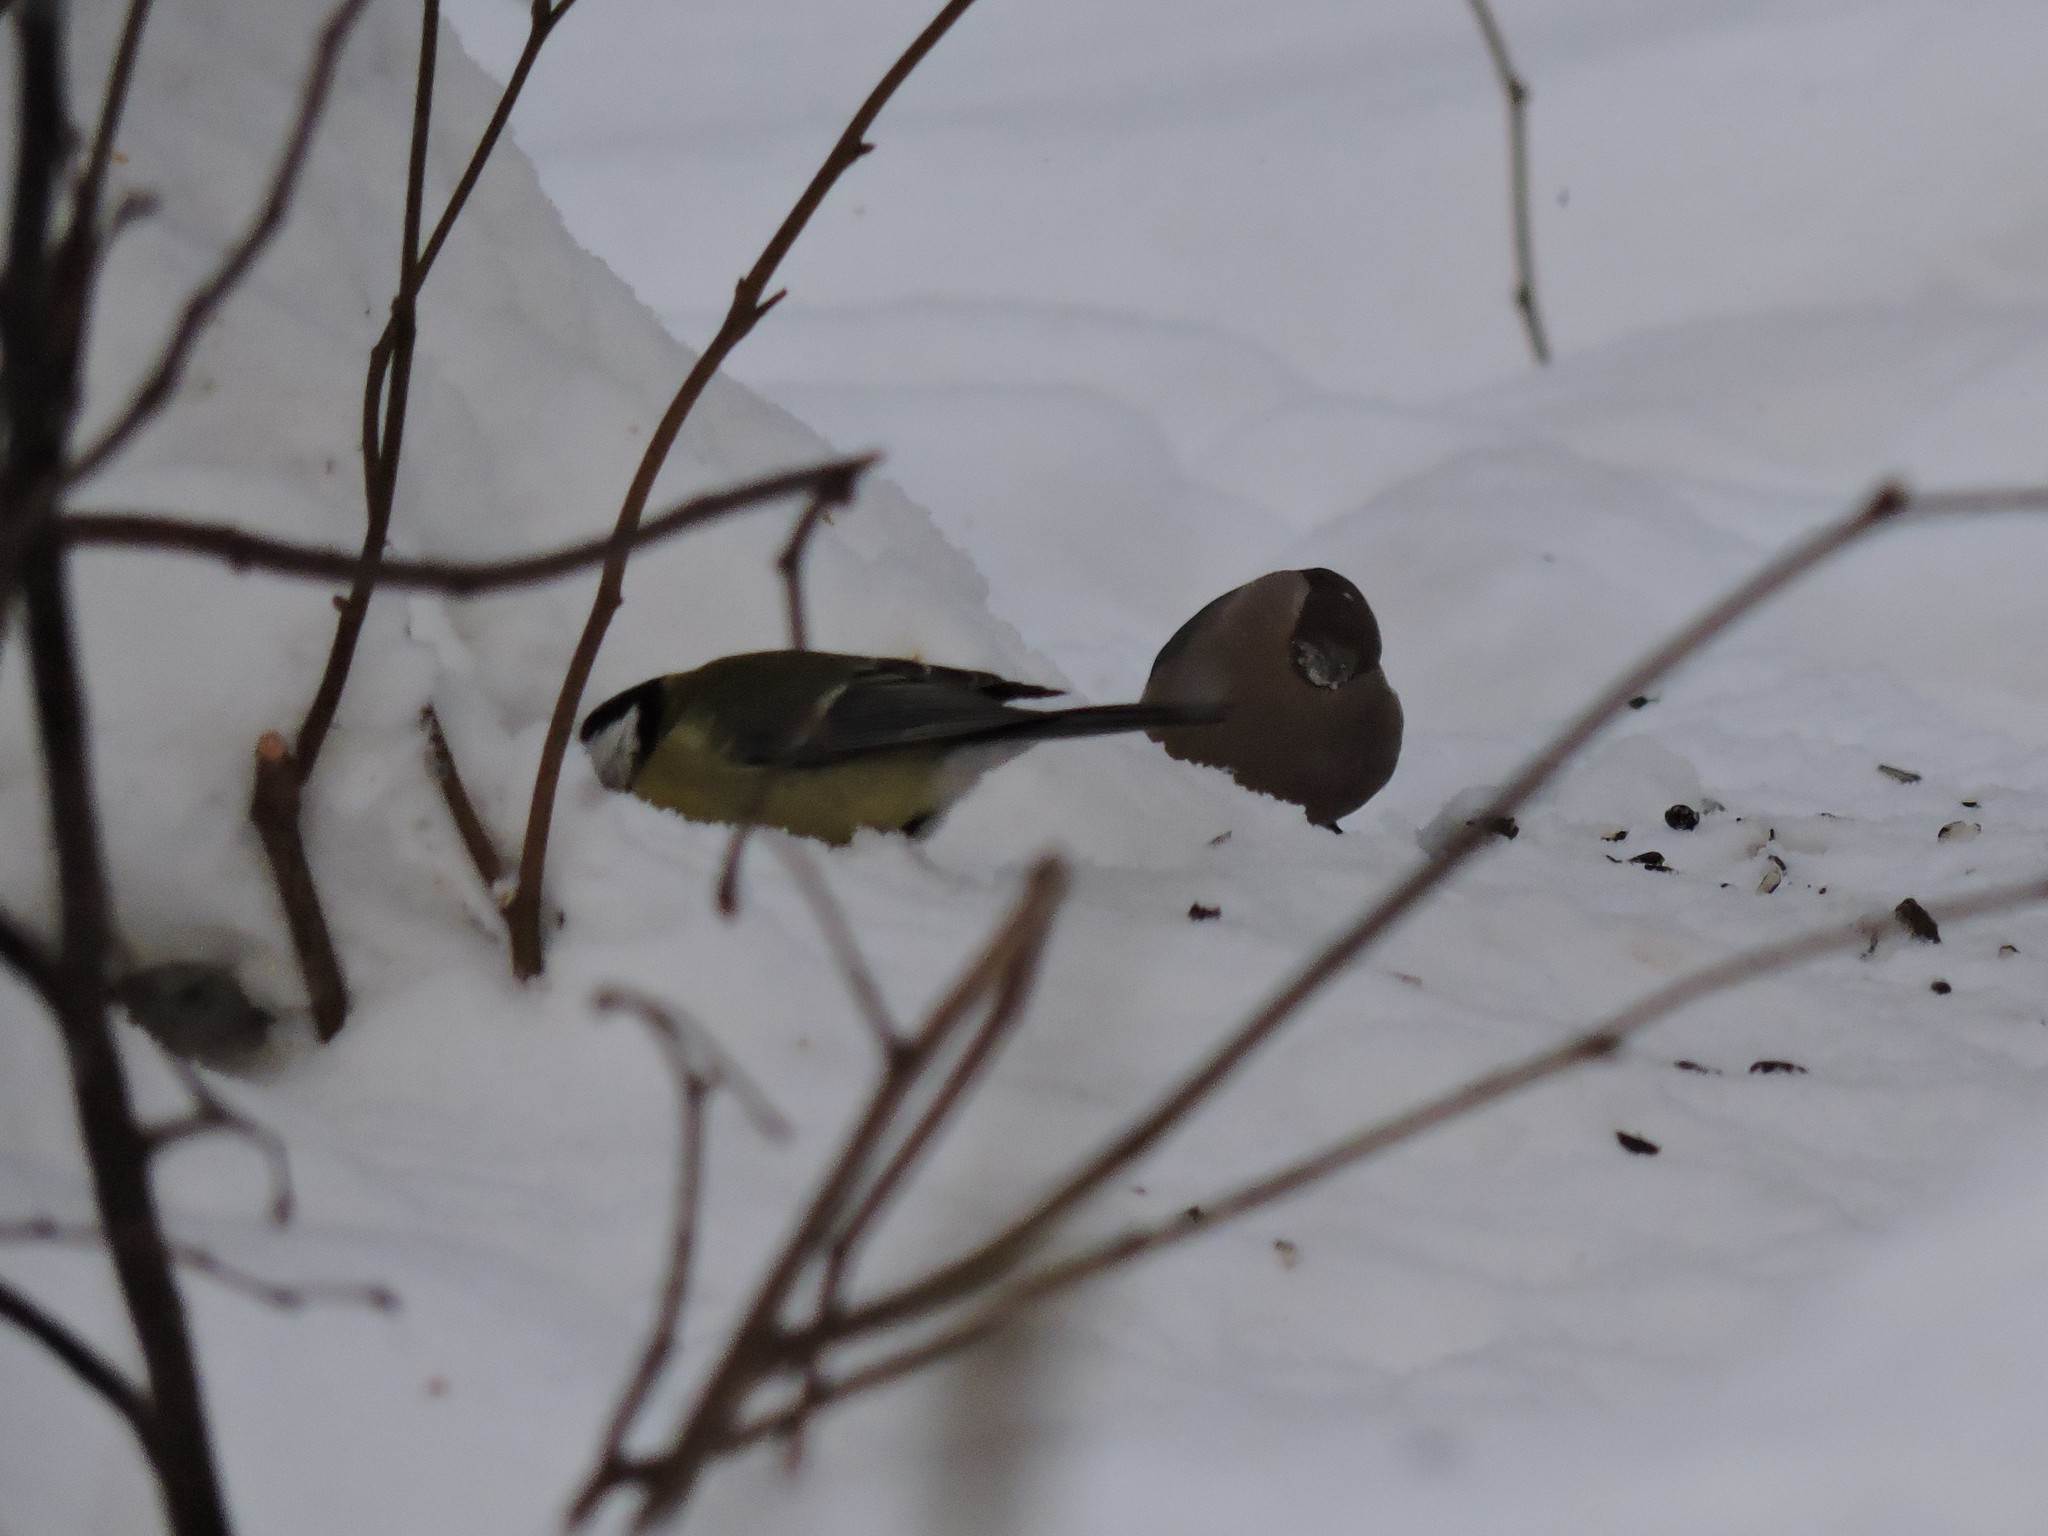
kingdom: Animalia
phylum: Chordata
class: Aves
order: Passeriformes
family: Fringillidae
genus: Pyrrhula
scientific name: Pyrrhula pyrrhula
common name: Eurasian bullfinch
